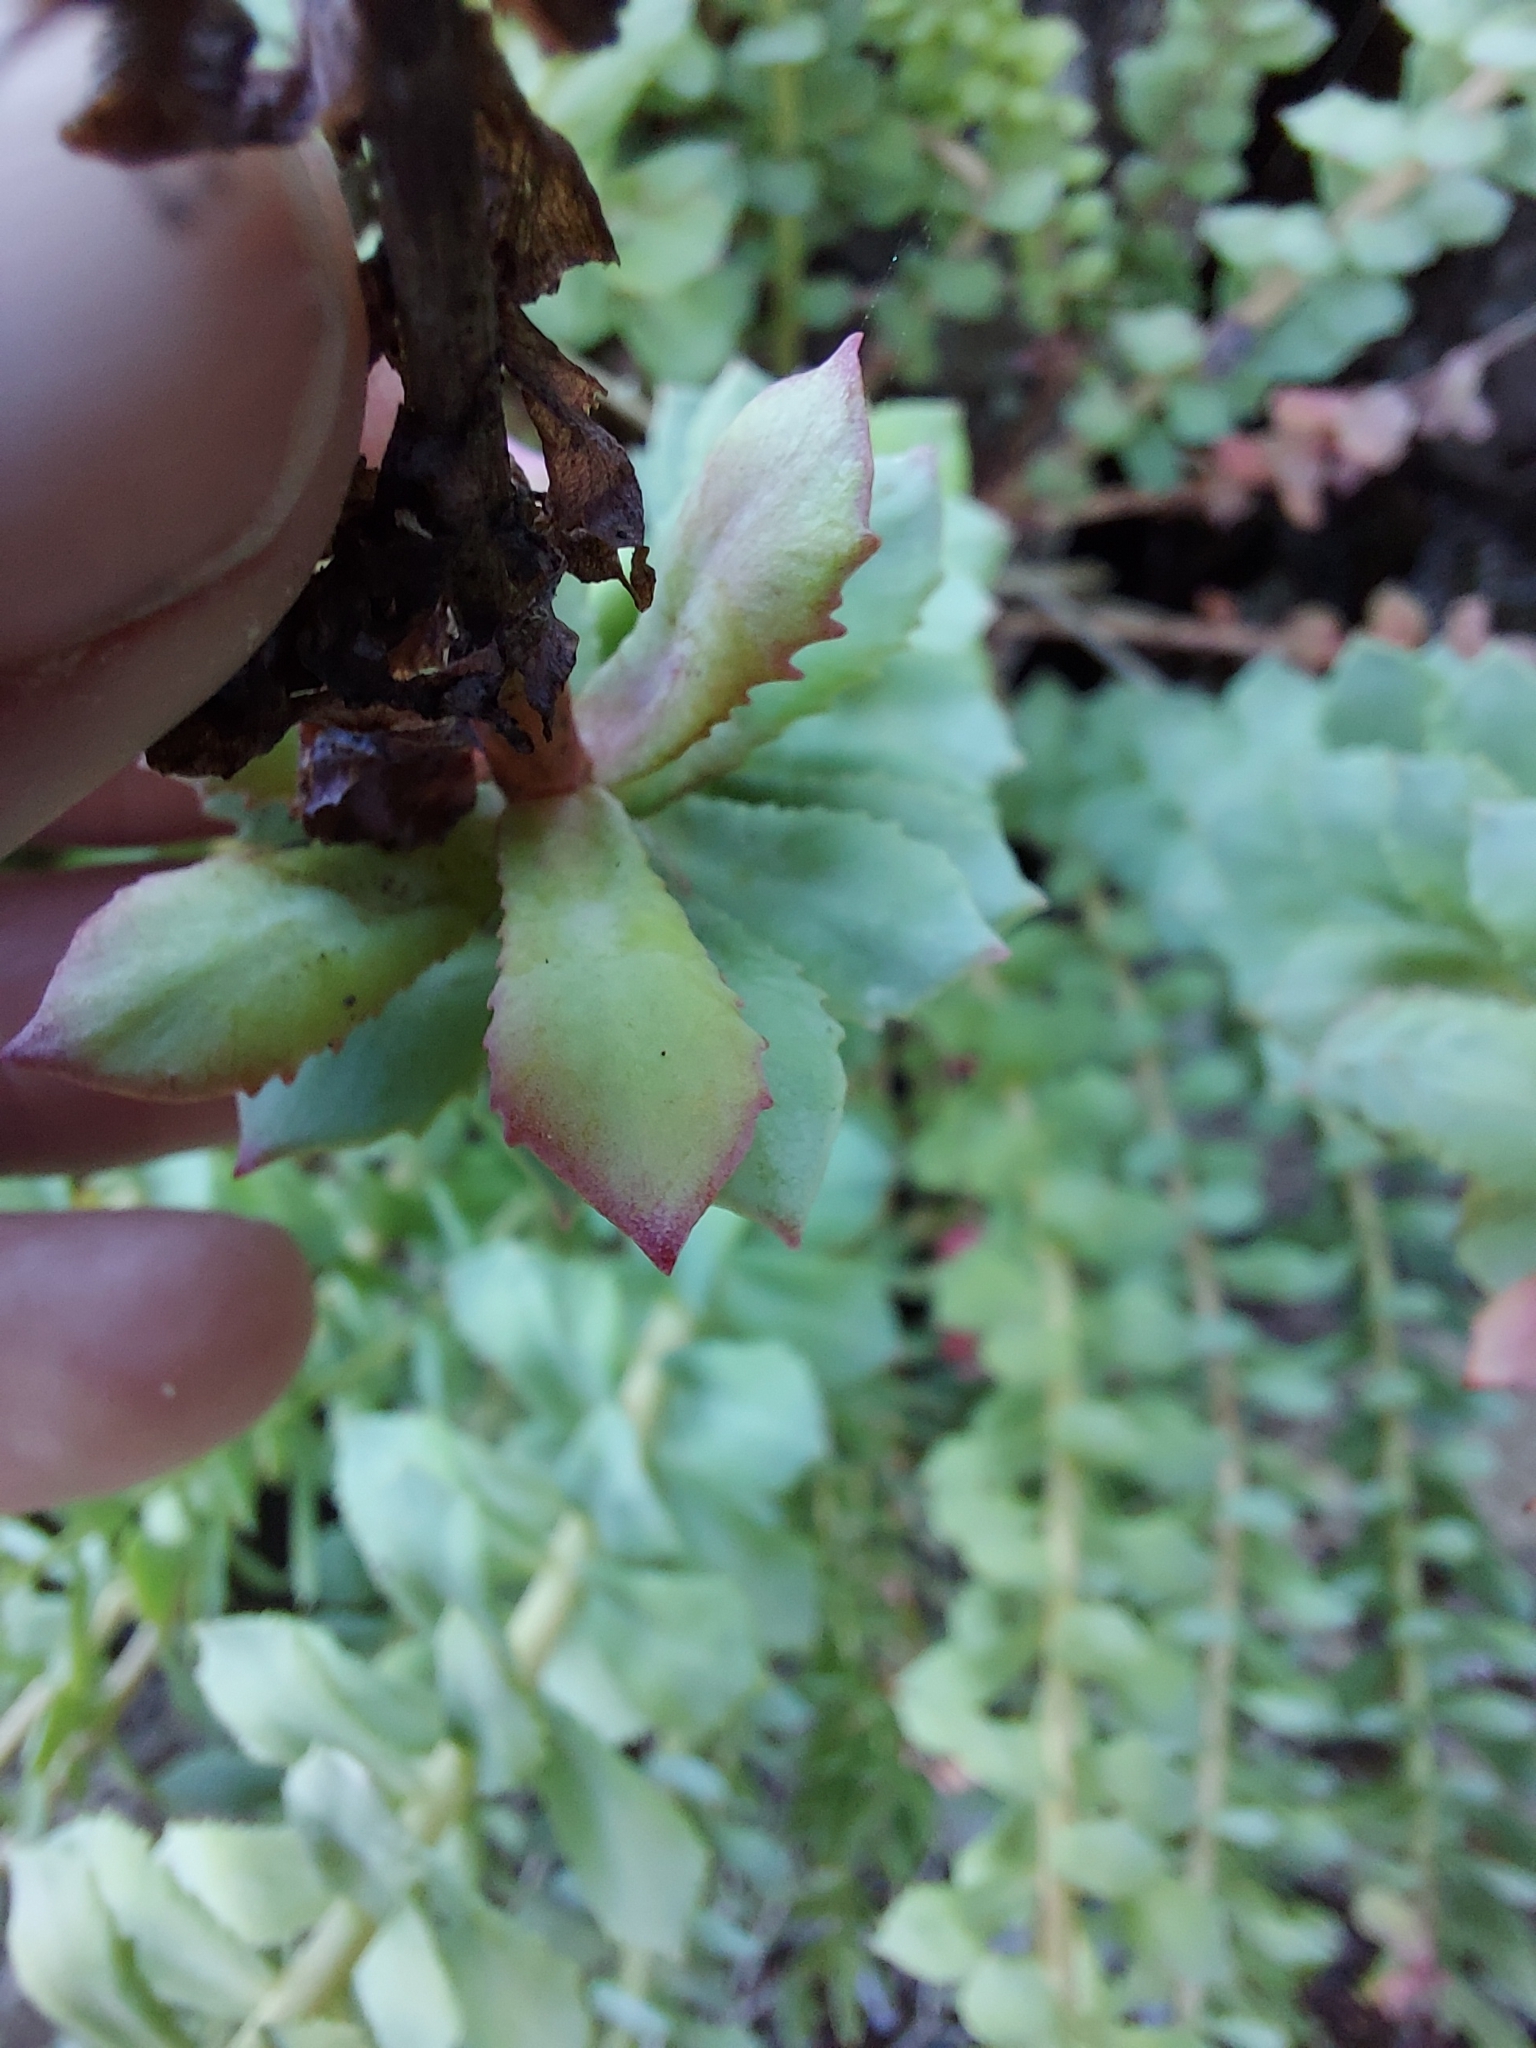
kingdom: Plantae
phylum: Tracheophyta
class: Magnoliopsida
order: Saxifragales
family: Crassulaceae
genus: Rhodiola
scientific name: Rhodiola rosea
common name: Roseroot
